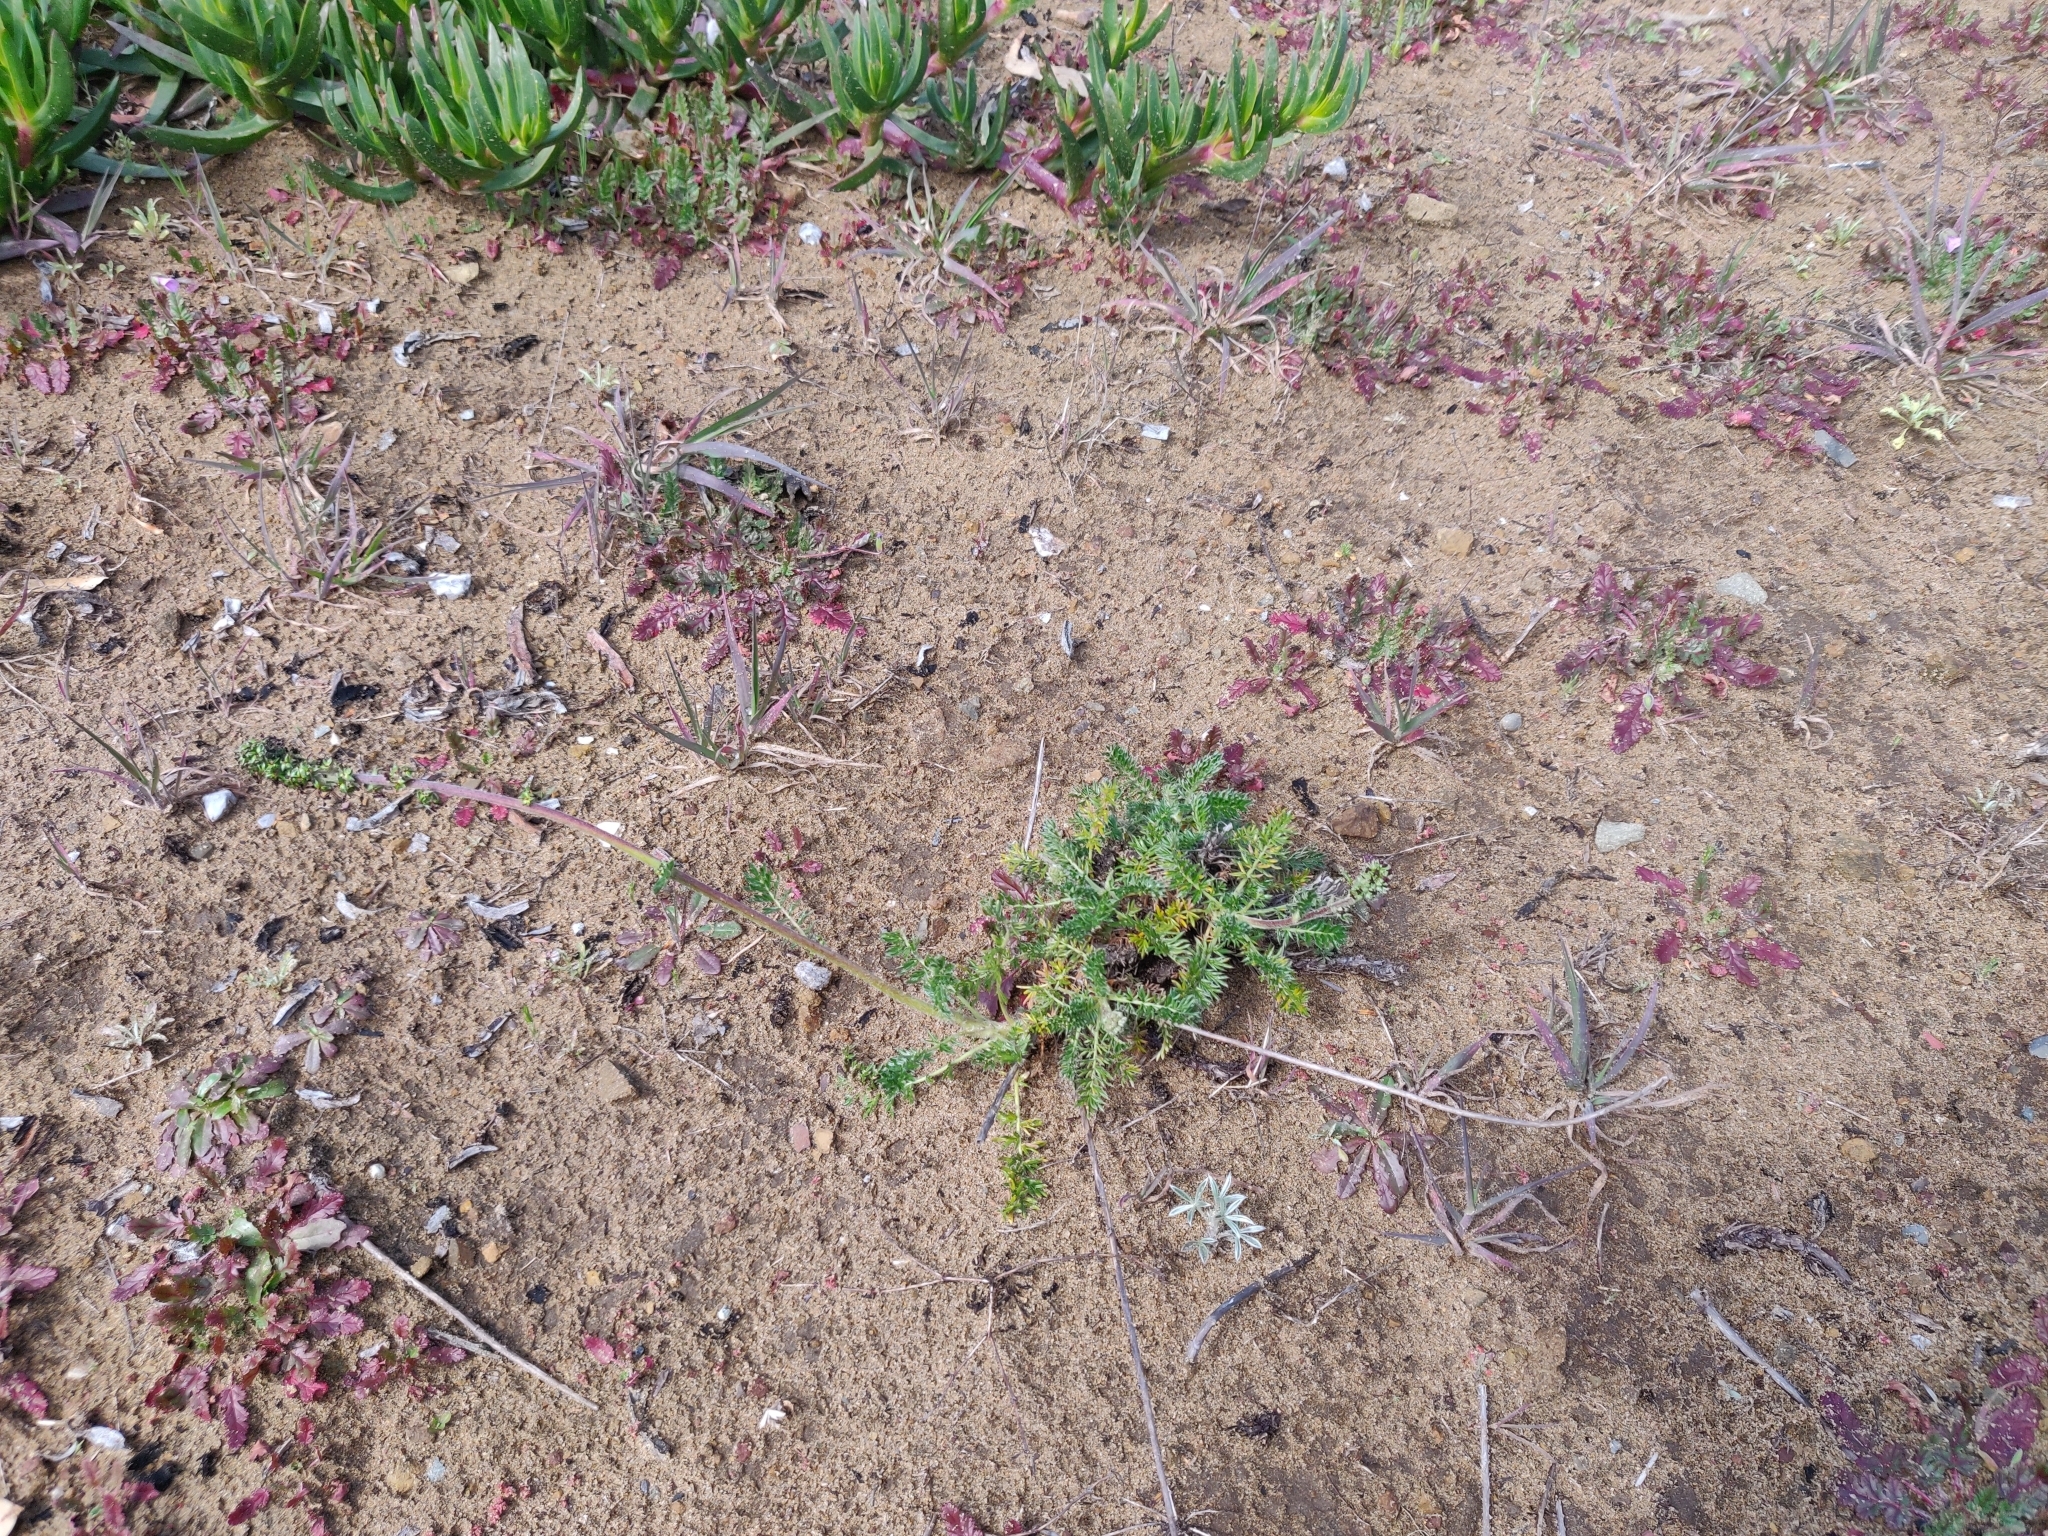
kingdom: Plantae
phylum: Tracheophyta
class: Magnoliopsida
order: Rosales
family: Rosaceae
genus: Acaena
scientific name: Acaena pinnatifida
